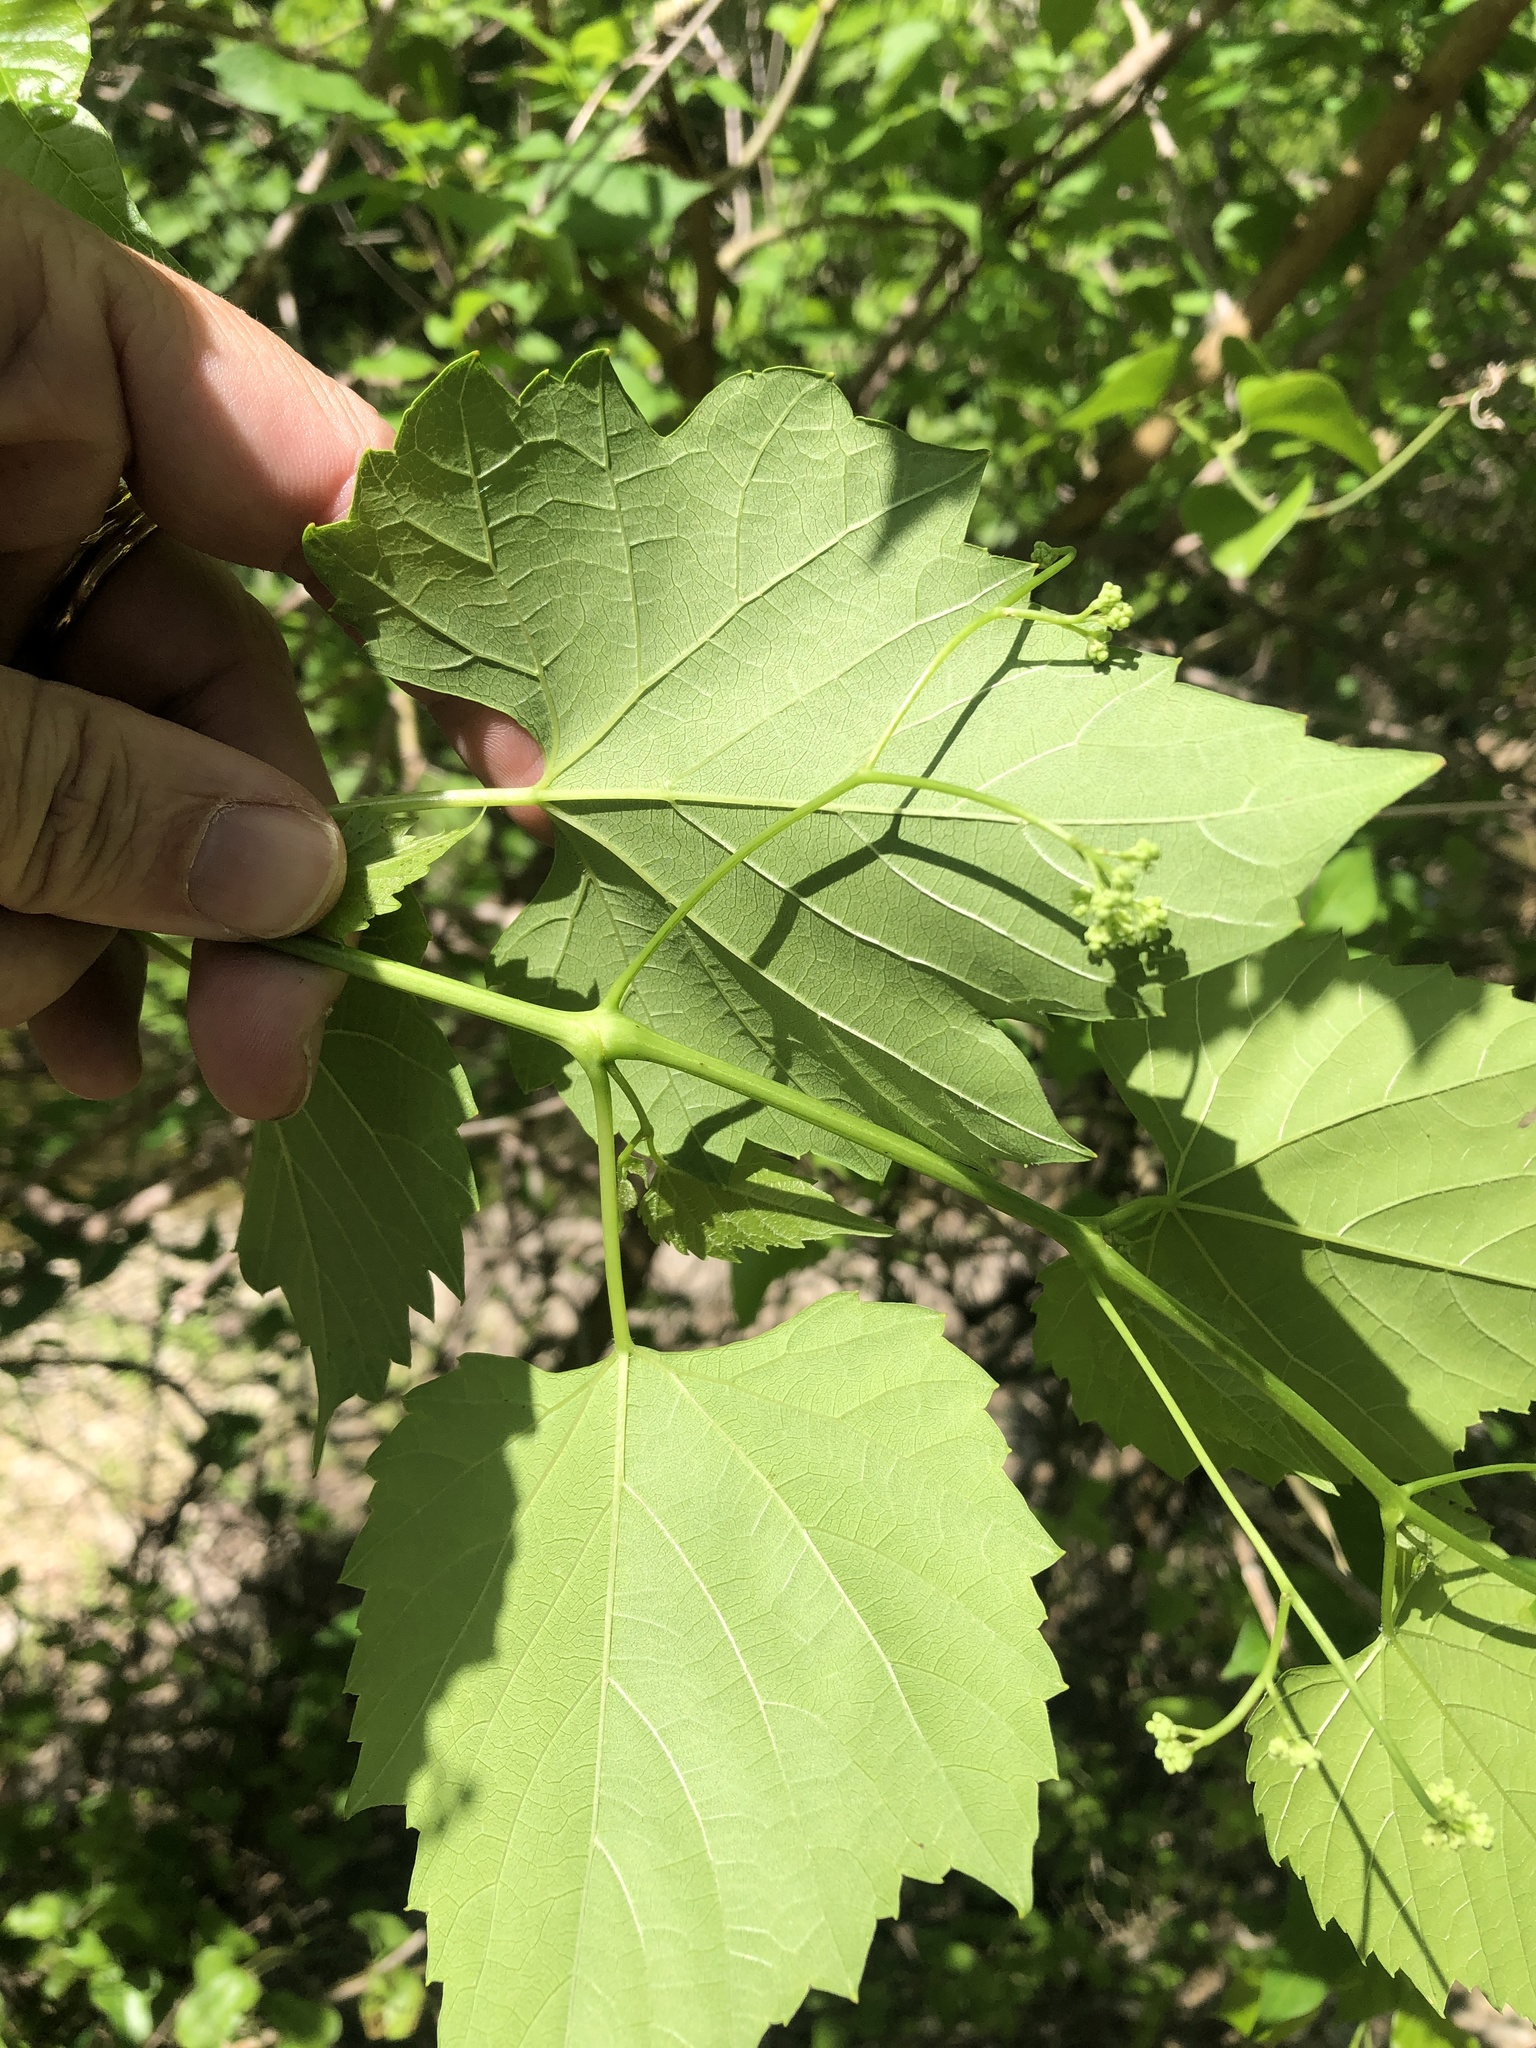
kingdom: Plantae
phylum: Tracheophyta
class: Magnoliopsida
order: Vitales
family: Vitaceae
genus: Ampelopsis
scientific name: Ampelopsis cordata
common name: Heart-leaf ampelopsis
